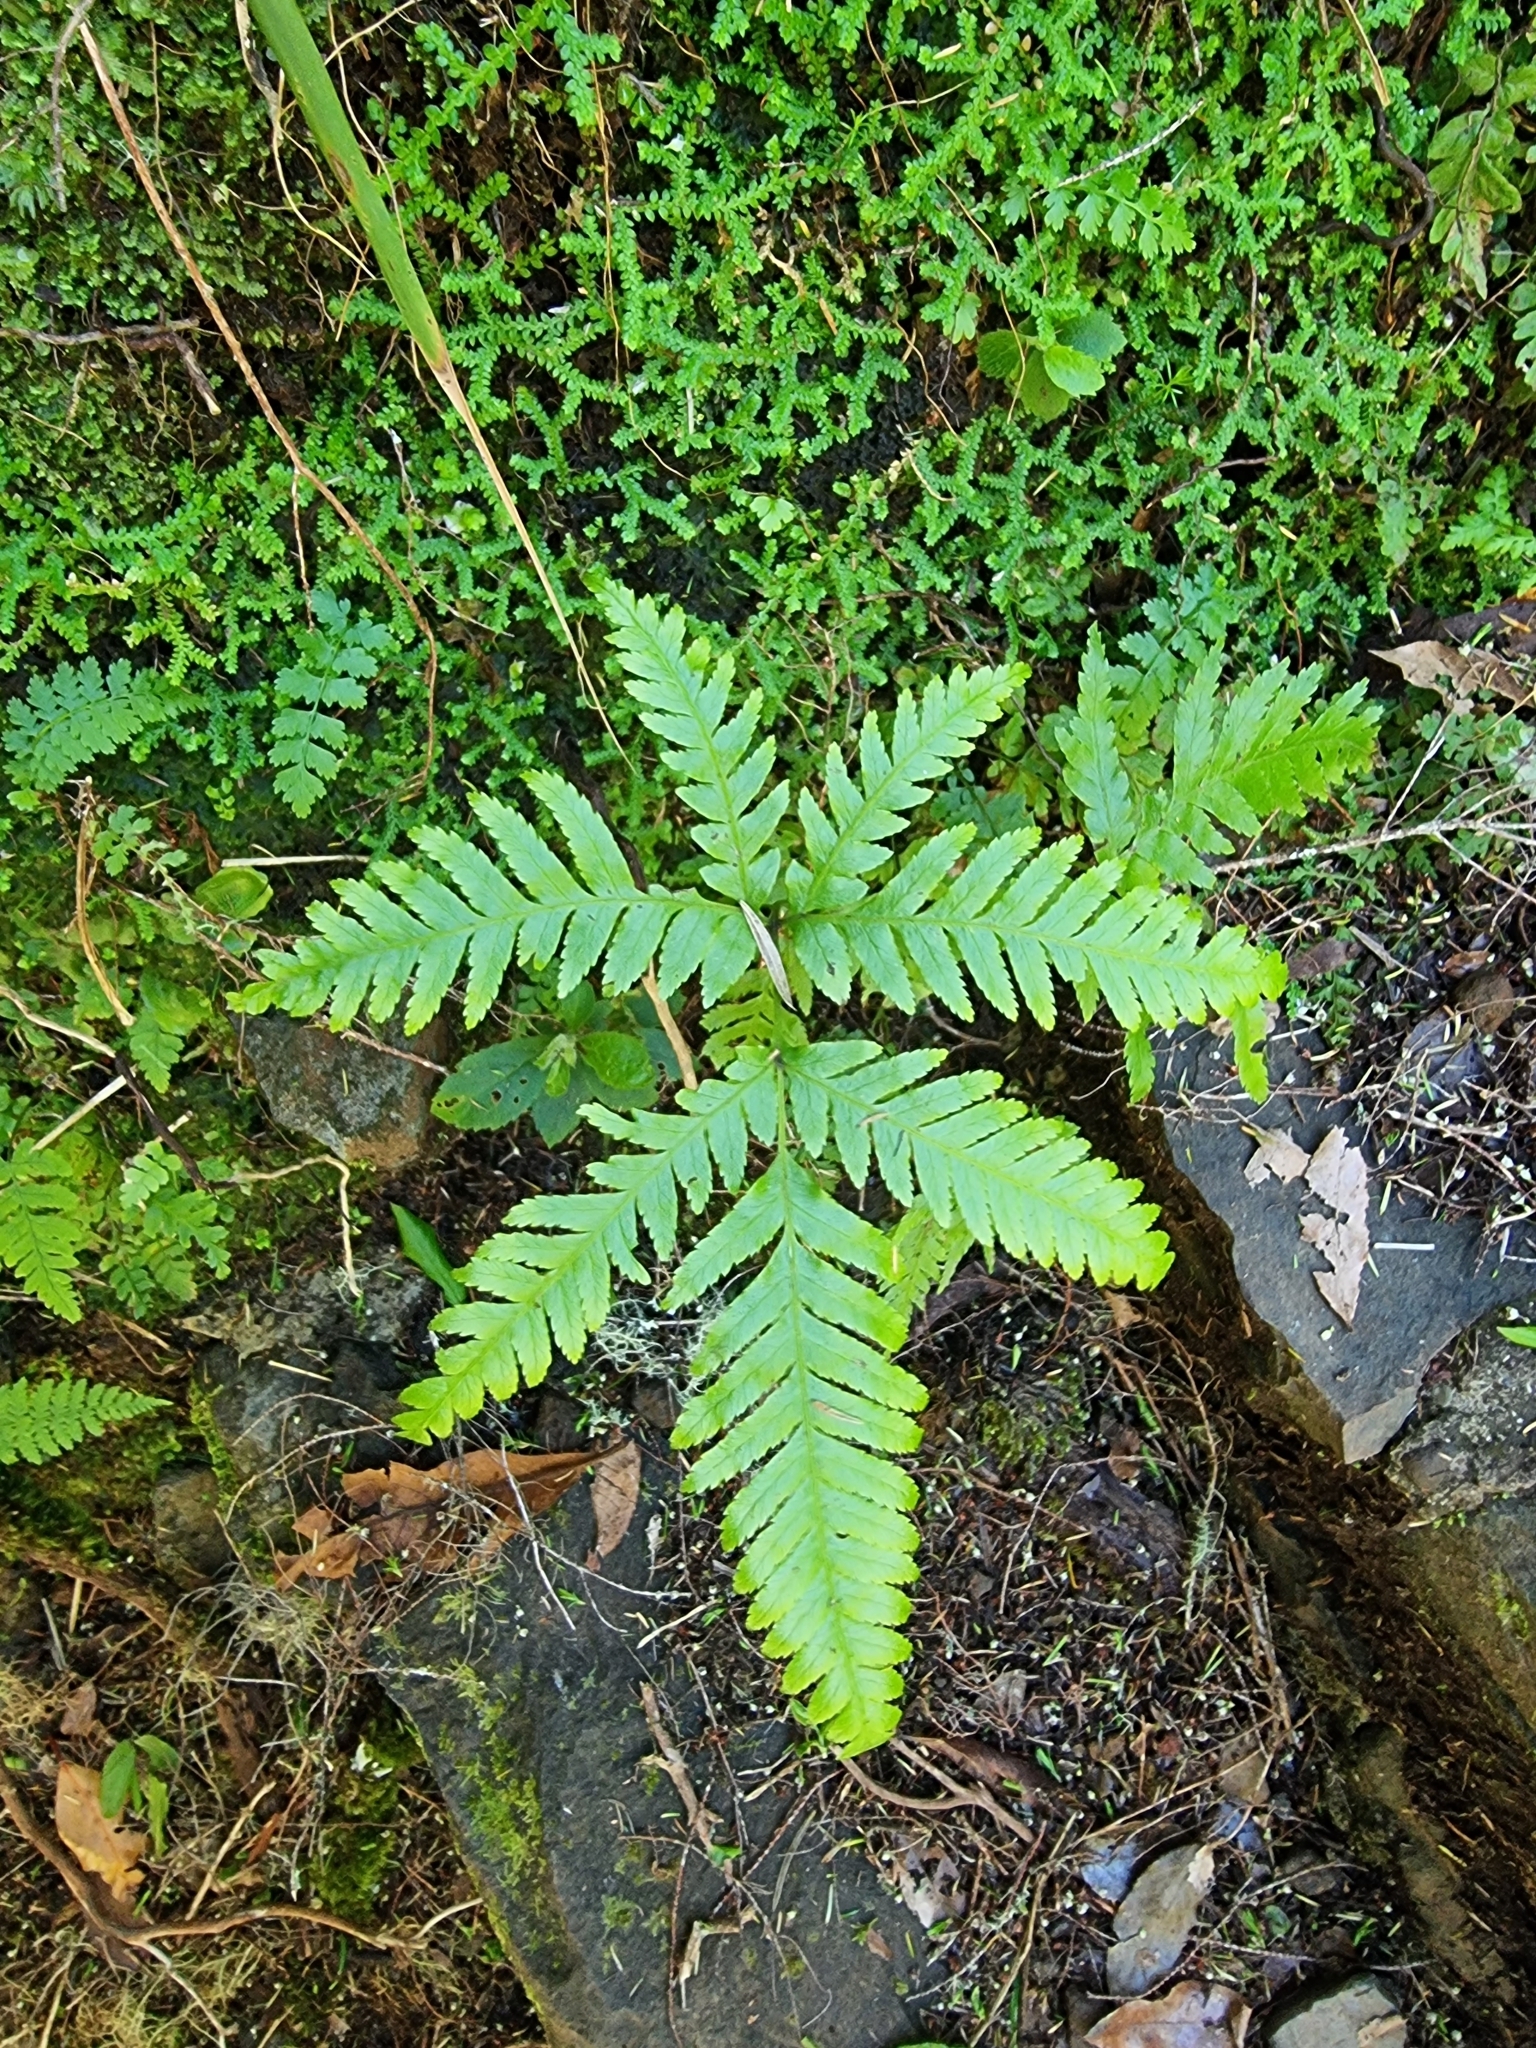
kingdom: Plantae
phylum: Tracheophyta
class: Polypodiopsida
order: Polypodiales
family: Pteridaceae
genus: Pteris
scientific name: Pteris incompleta
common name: Laurisilva brake
